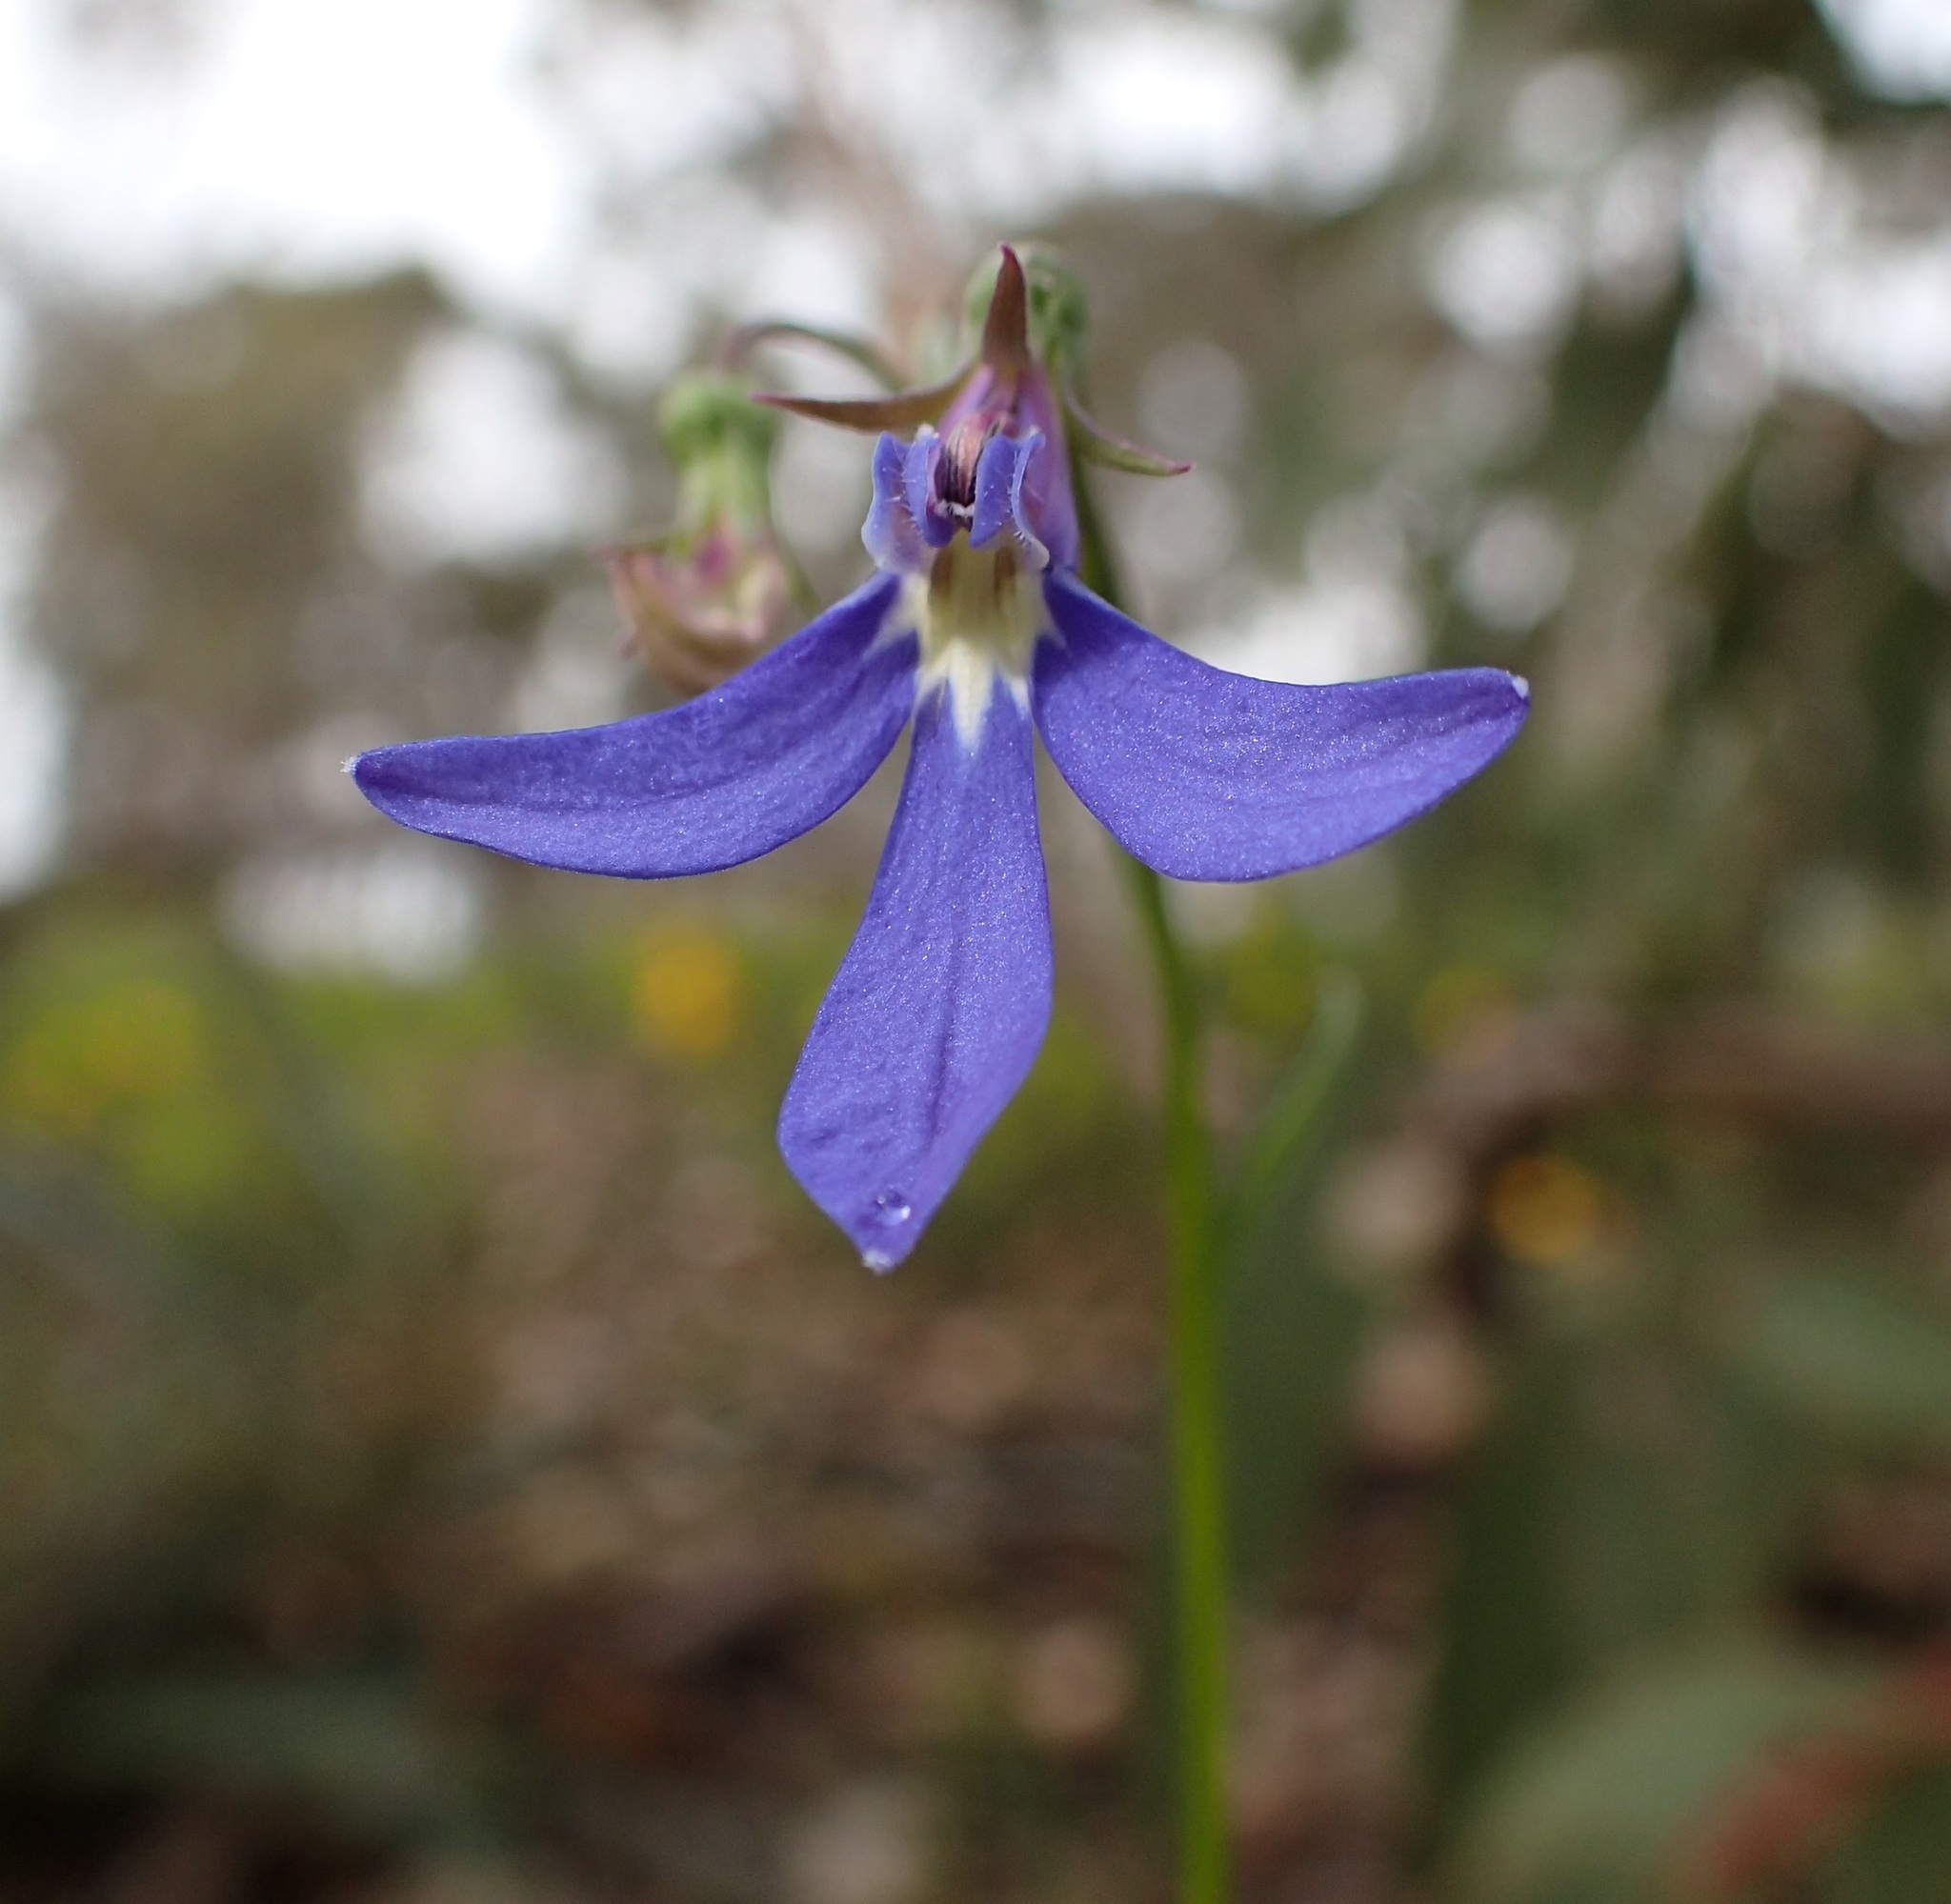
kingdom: Plantae
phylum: Tracheophyta
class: Magnoliopsida
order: Asterales
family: Campanulaceae
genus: Lobelia
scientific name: Lobelia rhombifolia
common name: Tufted lobelia
